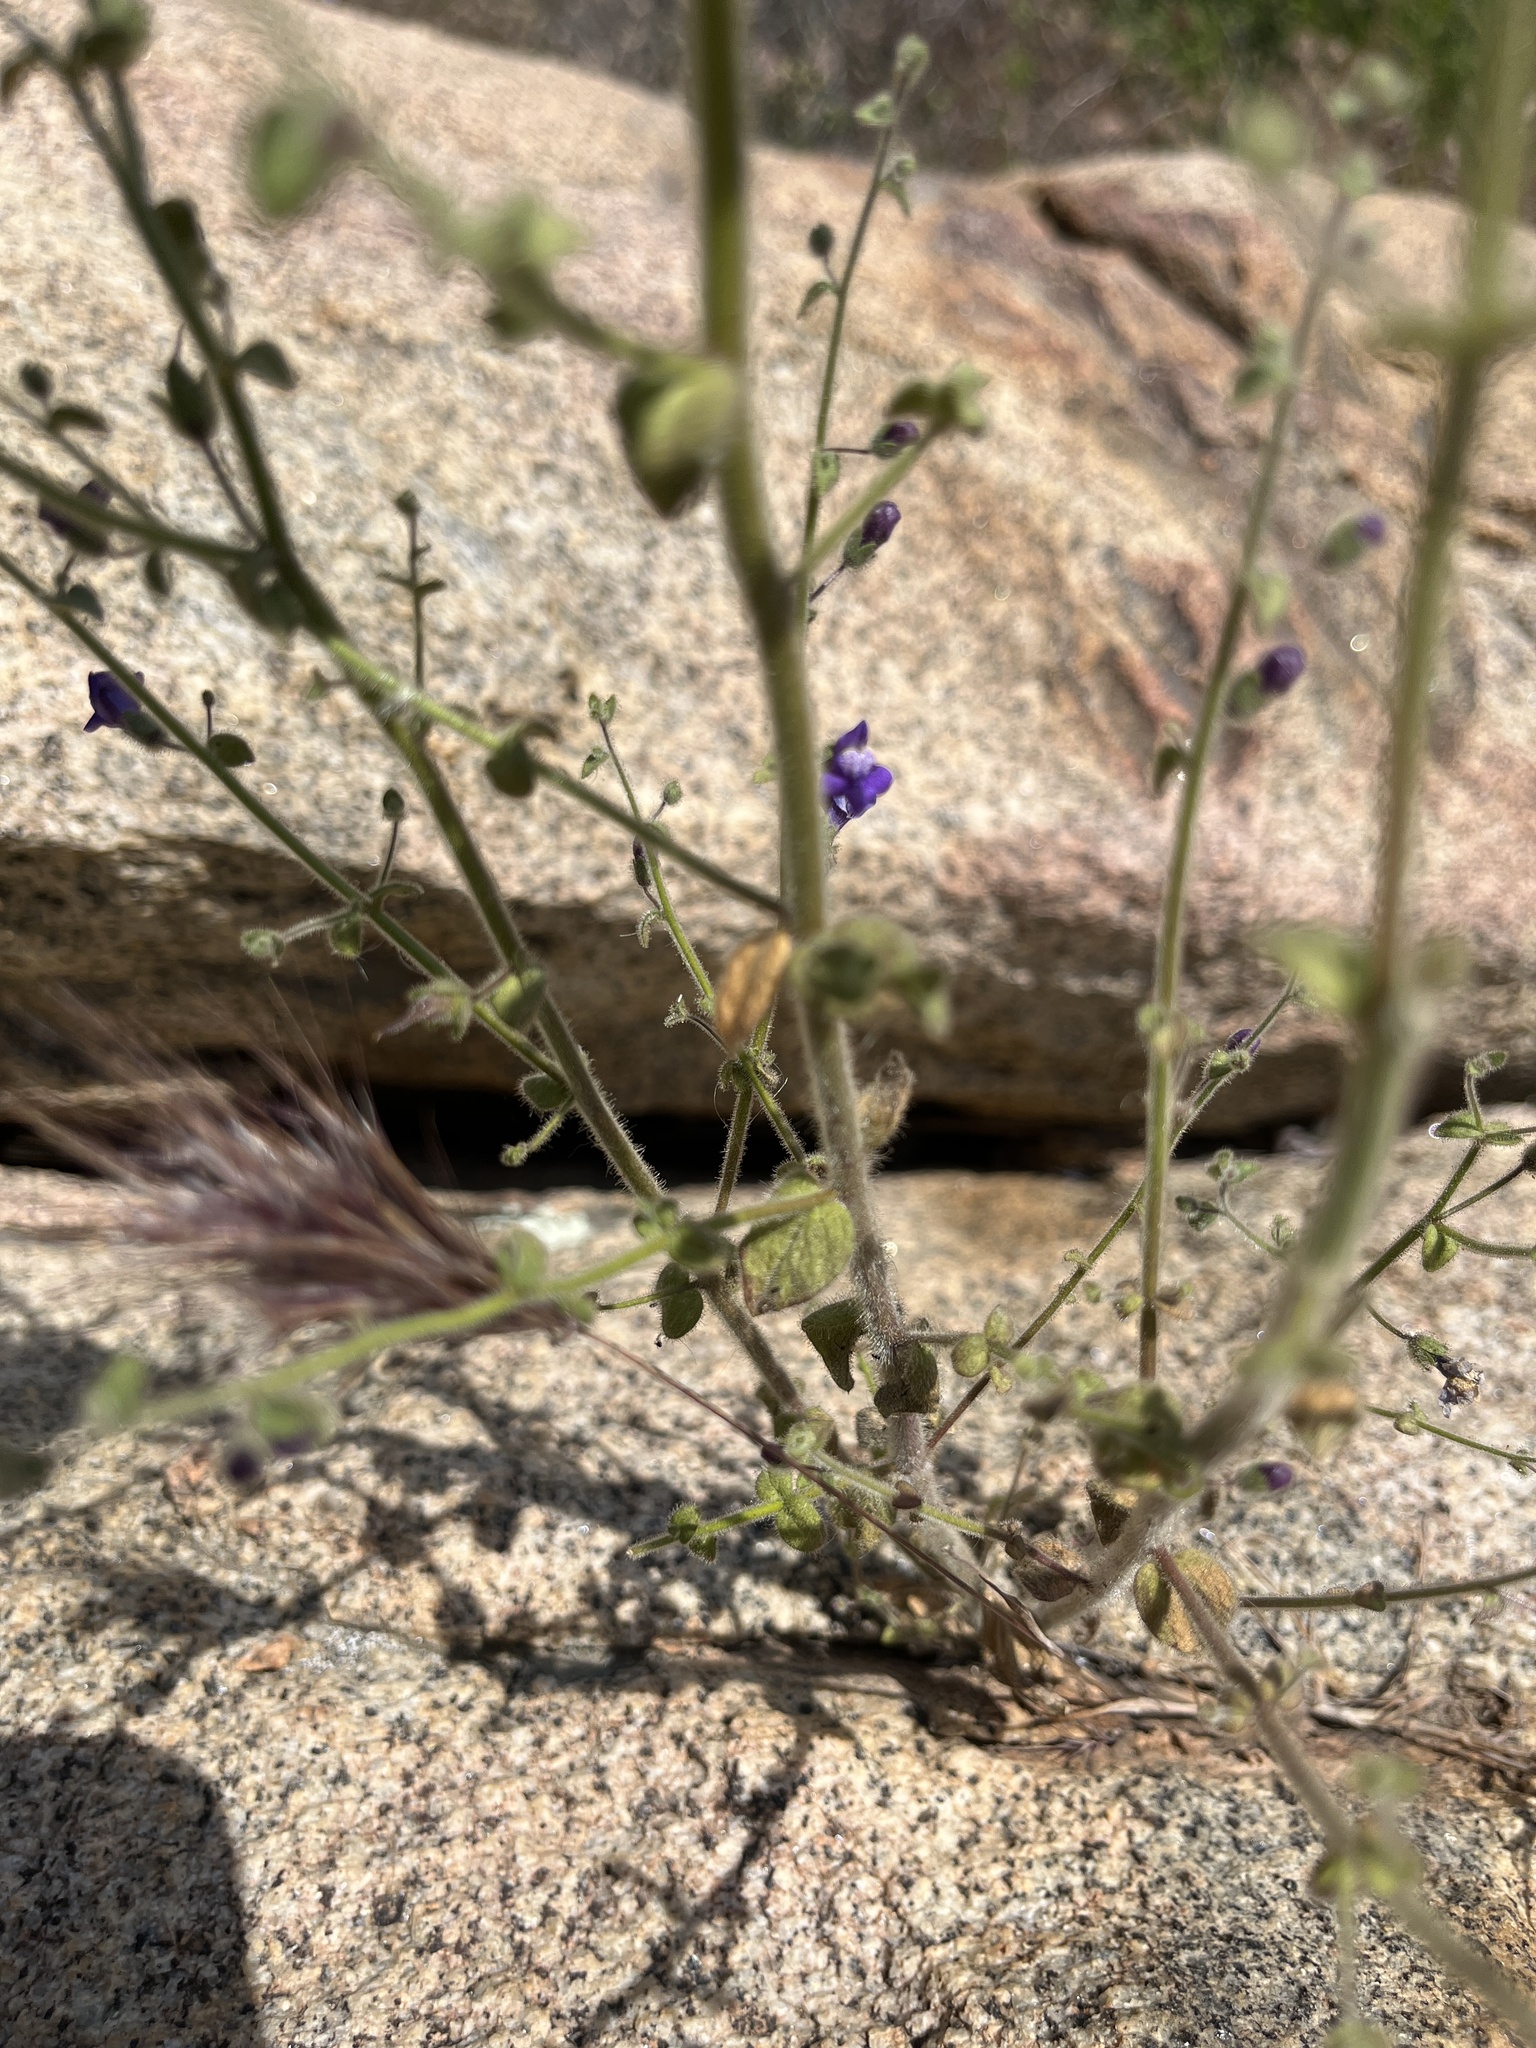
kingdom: Plantae
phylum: Tracheophyta
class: Magnoliopsida
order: Lamiales
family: Plantaginaceae
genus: Sairocarpus
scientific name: Sairocarpus nuttallianus
